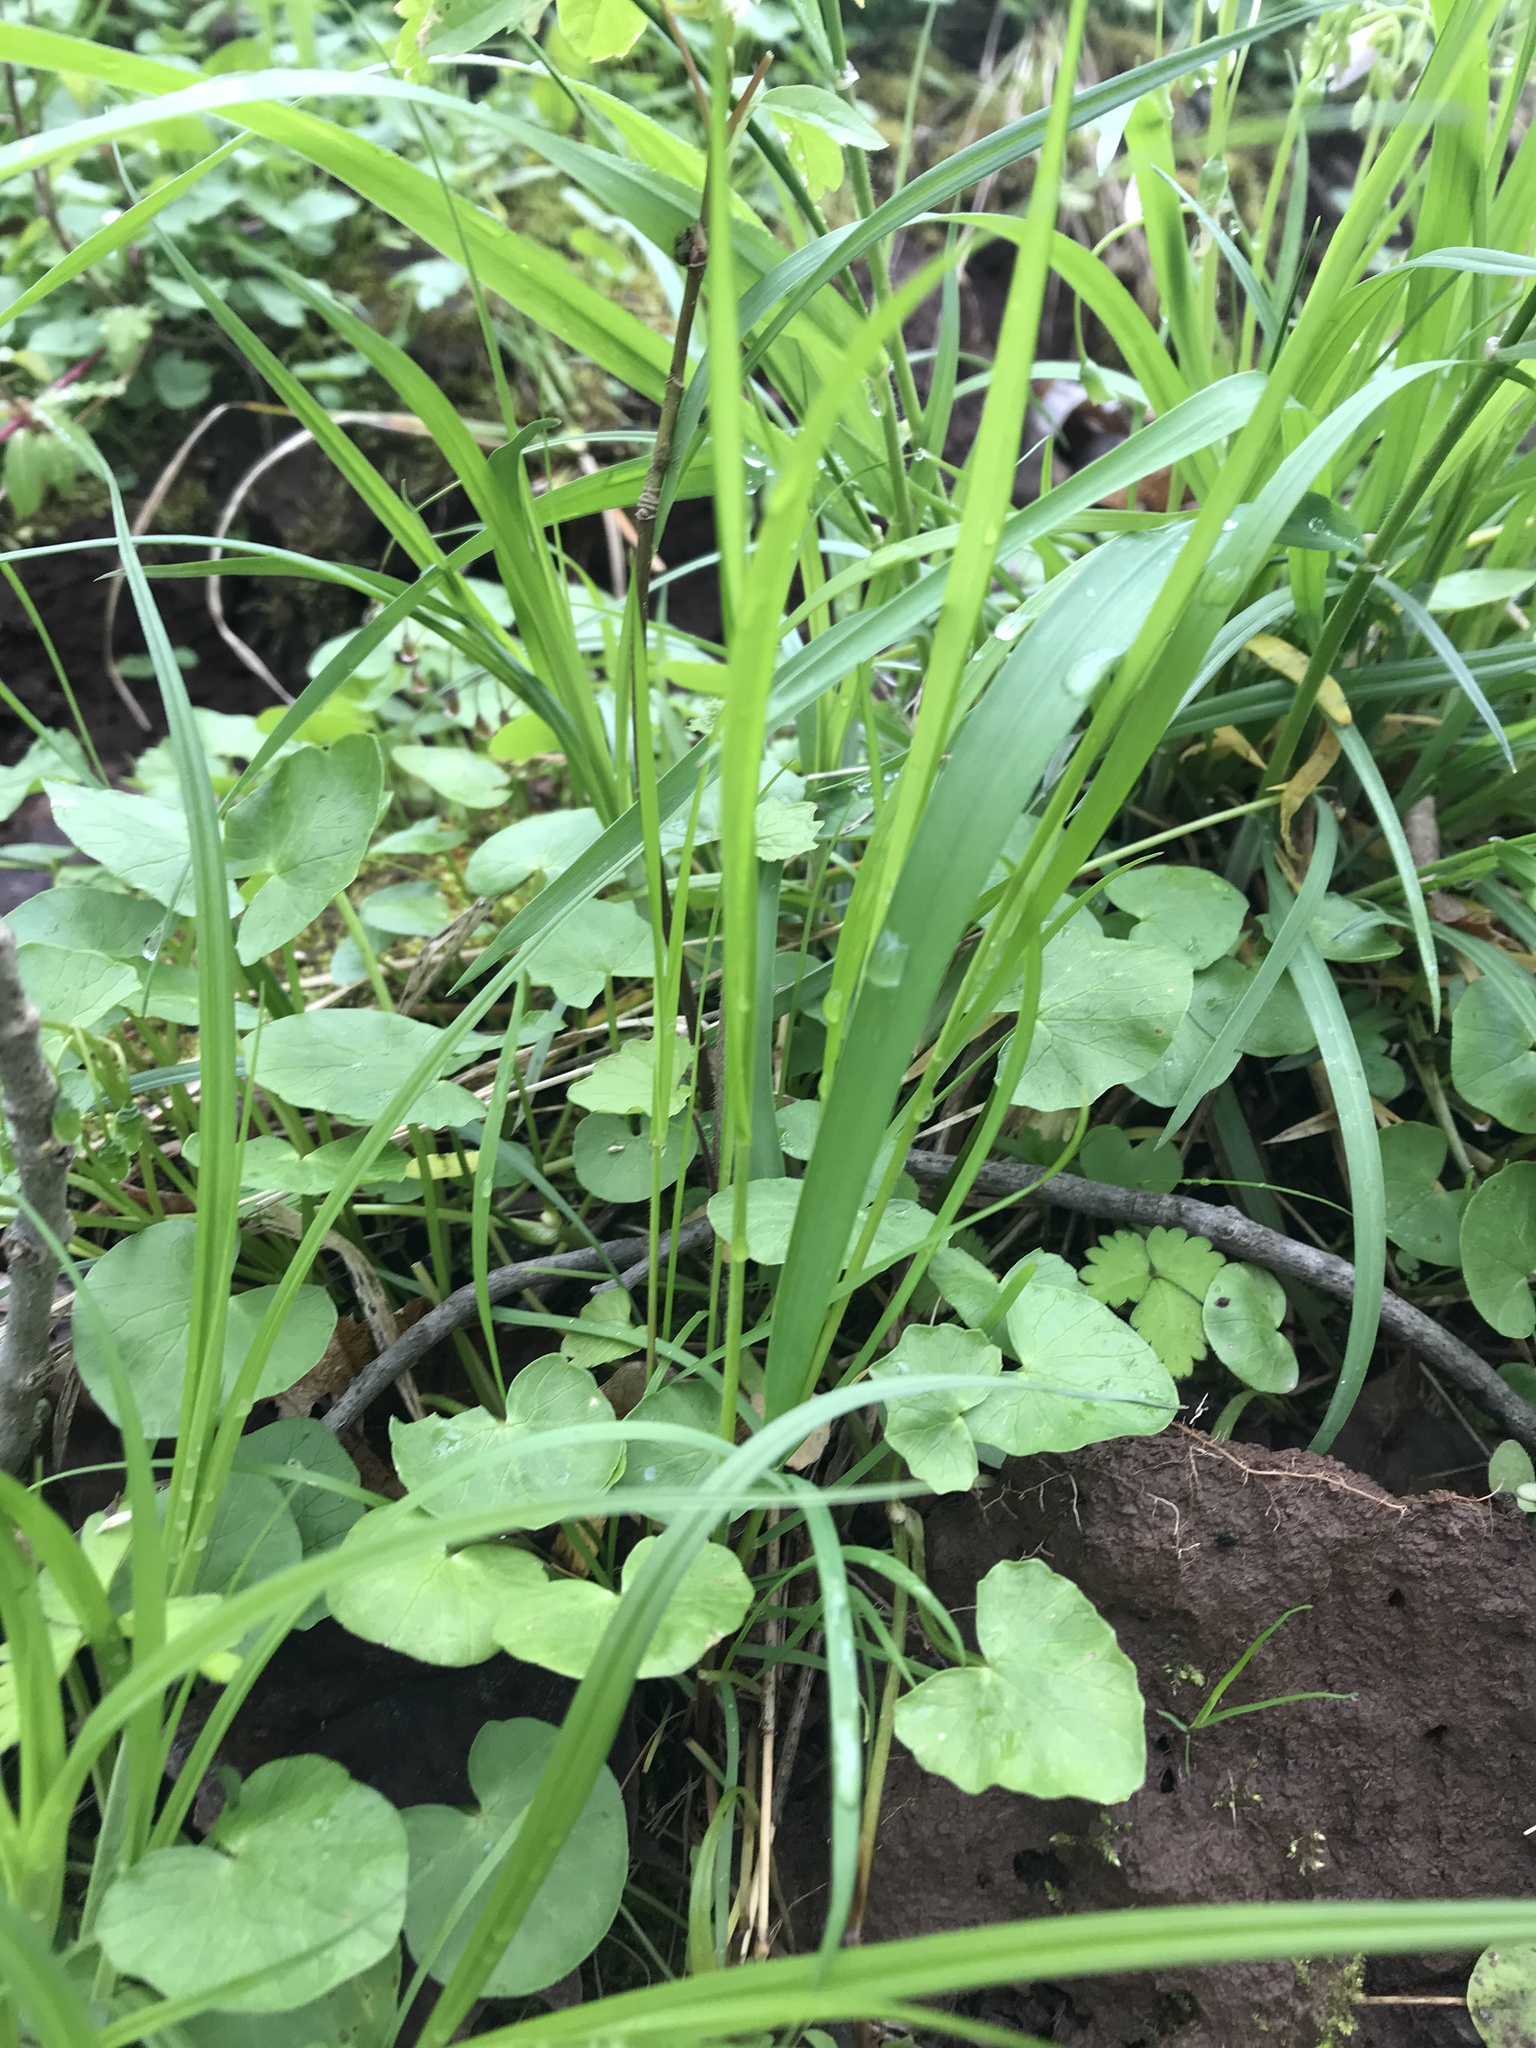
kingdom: Plantae
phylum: Tracheophyta
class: Liliopsida
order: Poales
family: Poaceae
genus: Elymus
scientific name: Elymus villosus
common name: Downy wild rye
